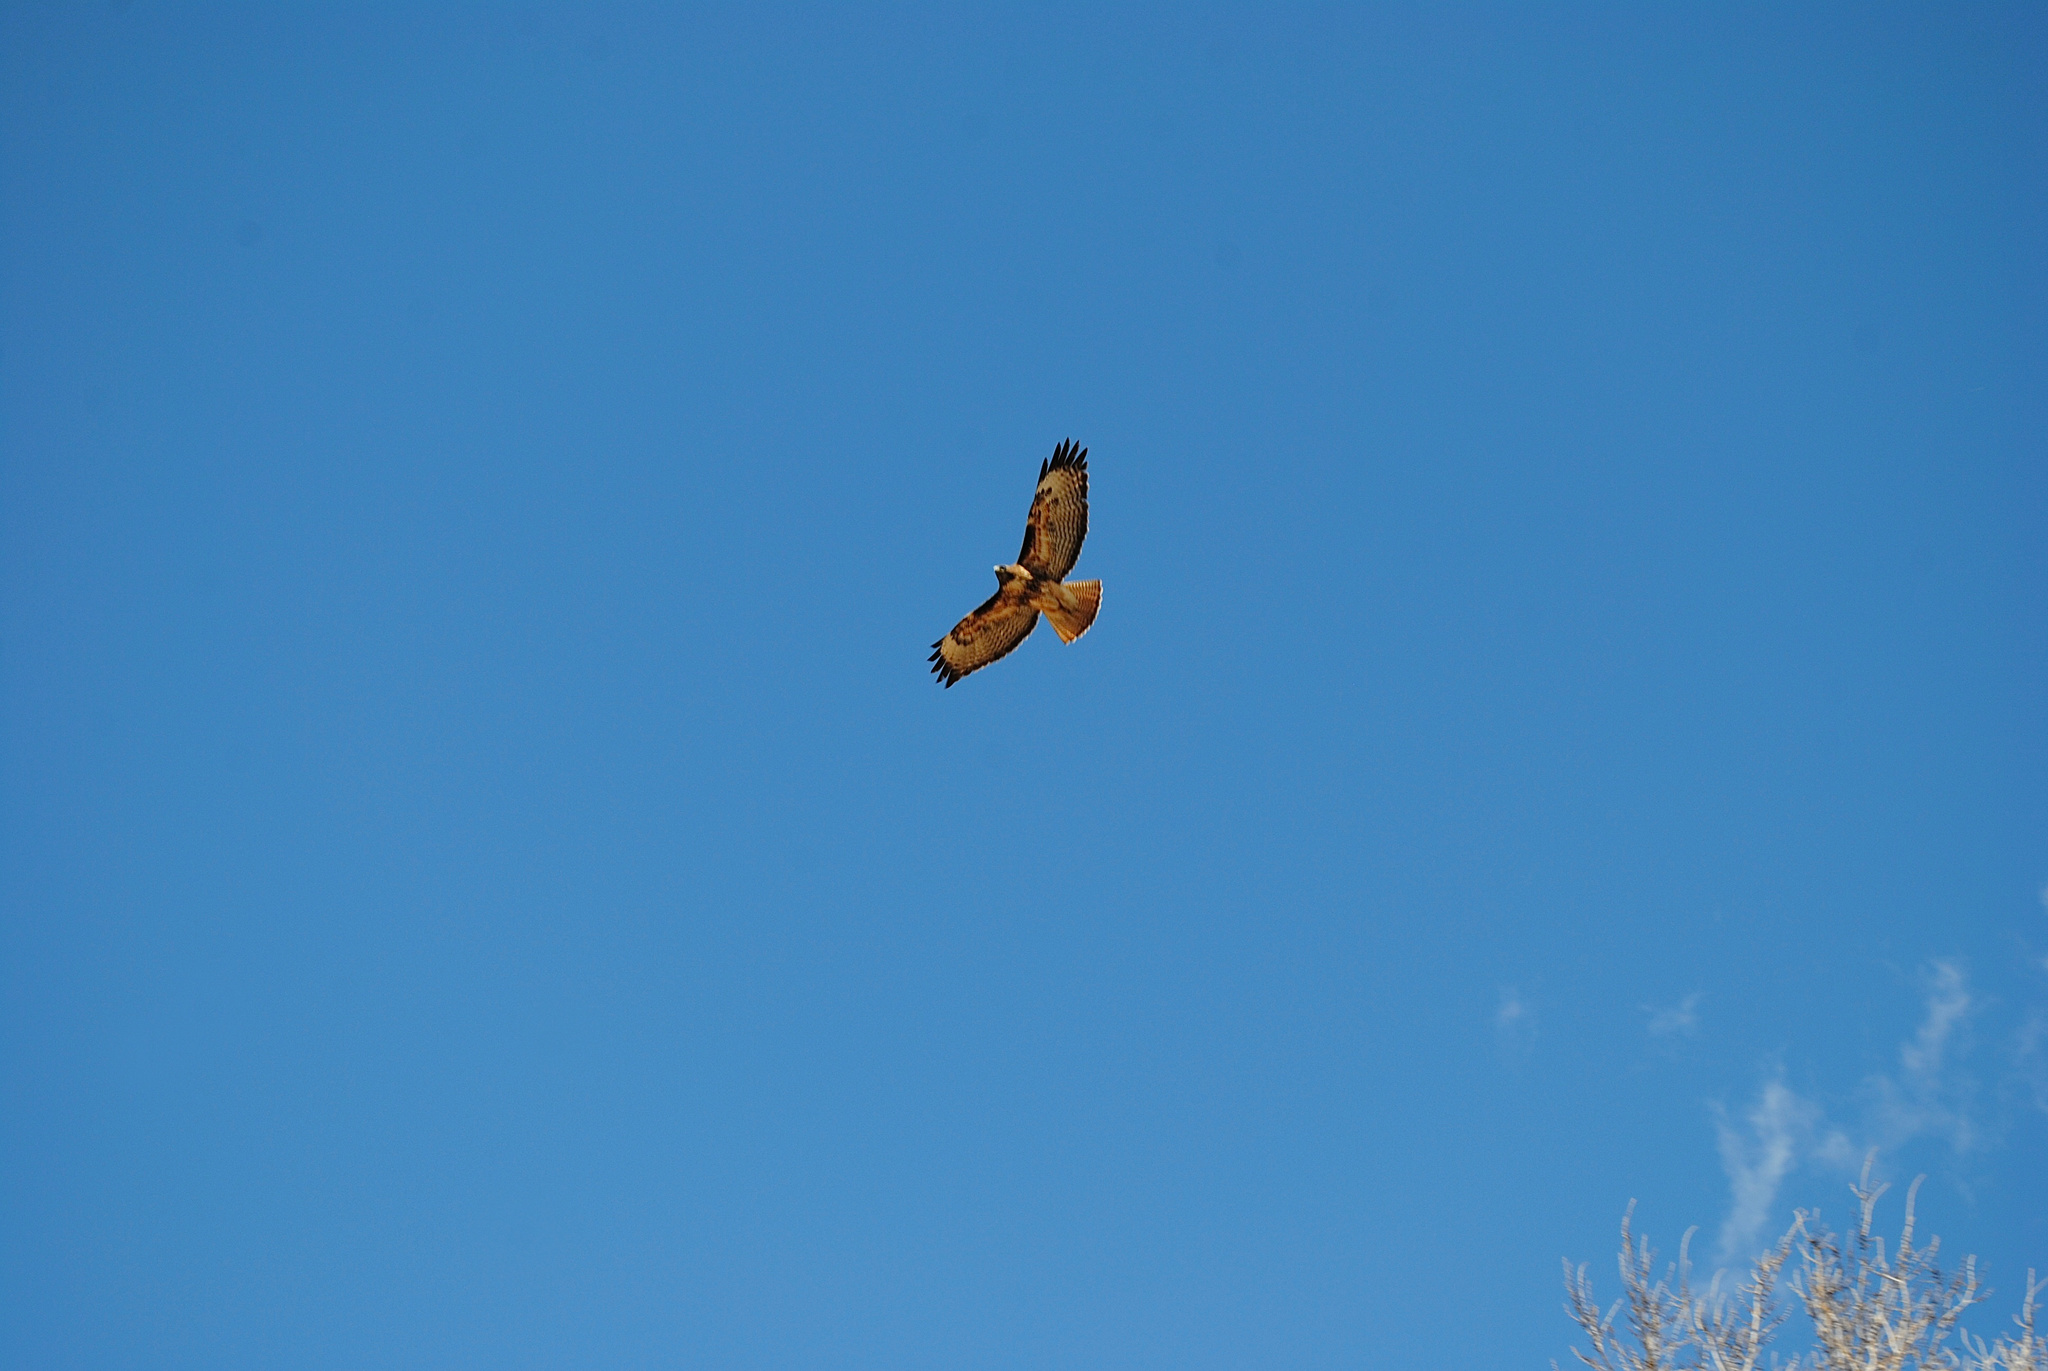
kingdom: Animalia
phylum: Chordata
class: Aves
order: Accipitriformes
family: Accipitridae
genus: Buteo
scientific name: Buteo jamaicensis
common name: Red-tailed hawk
